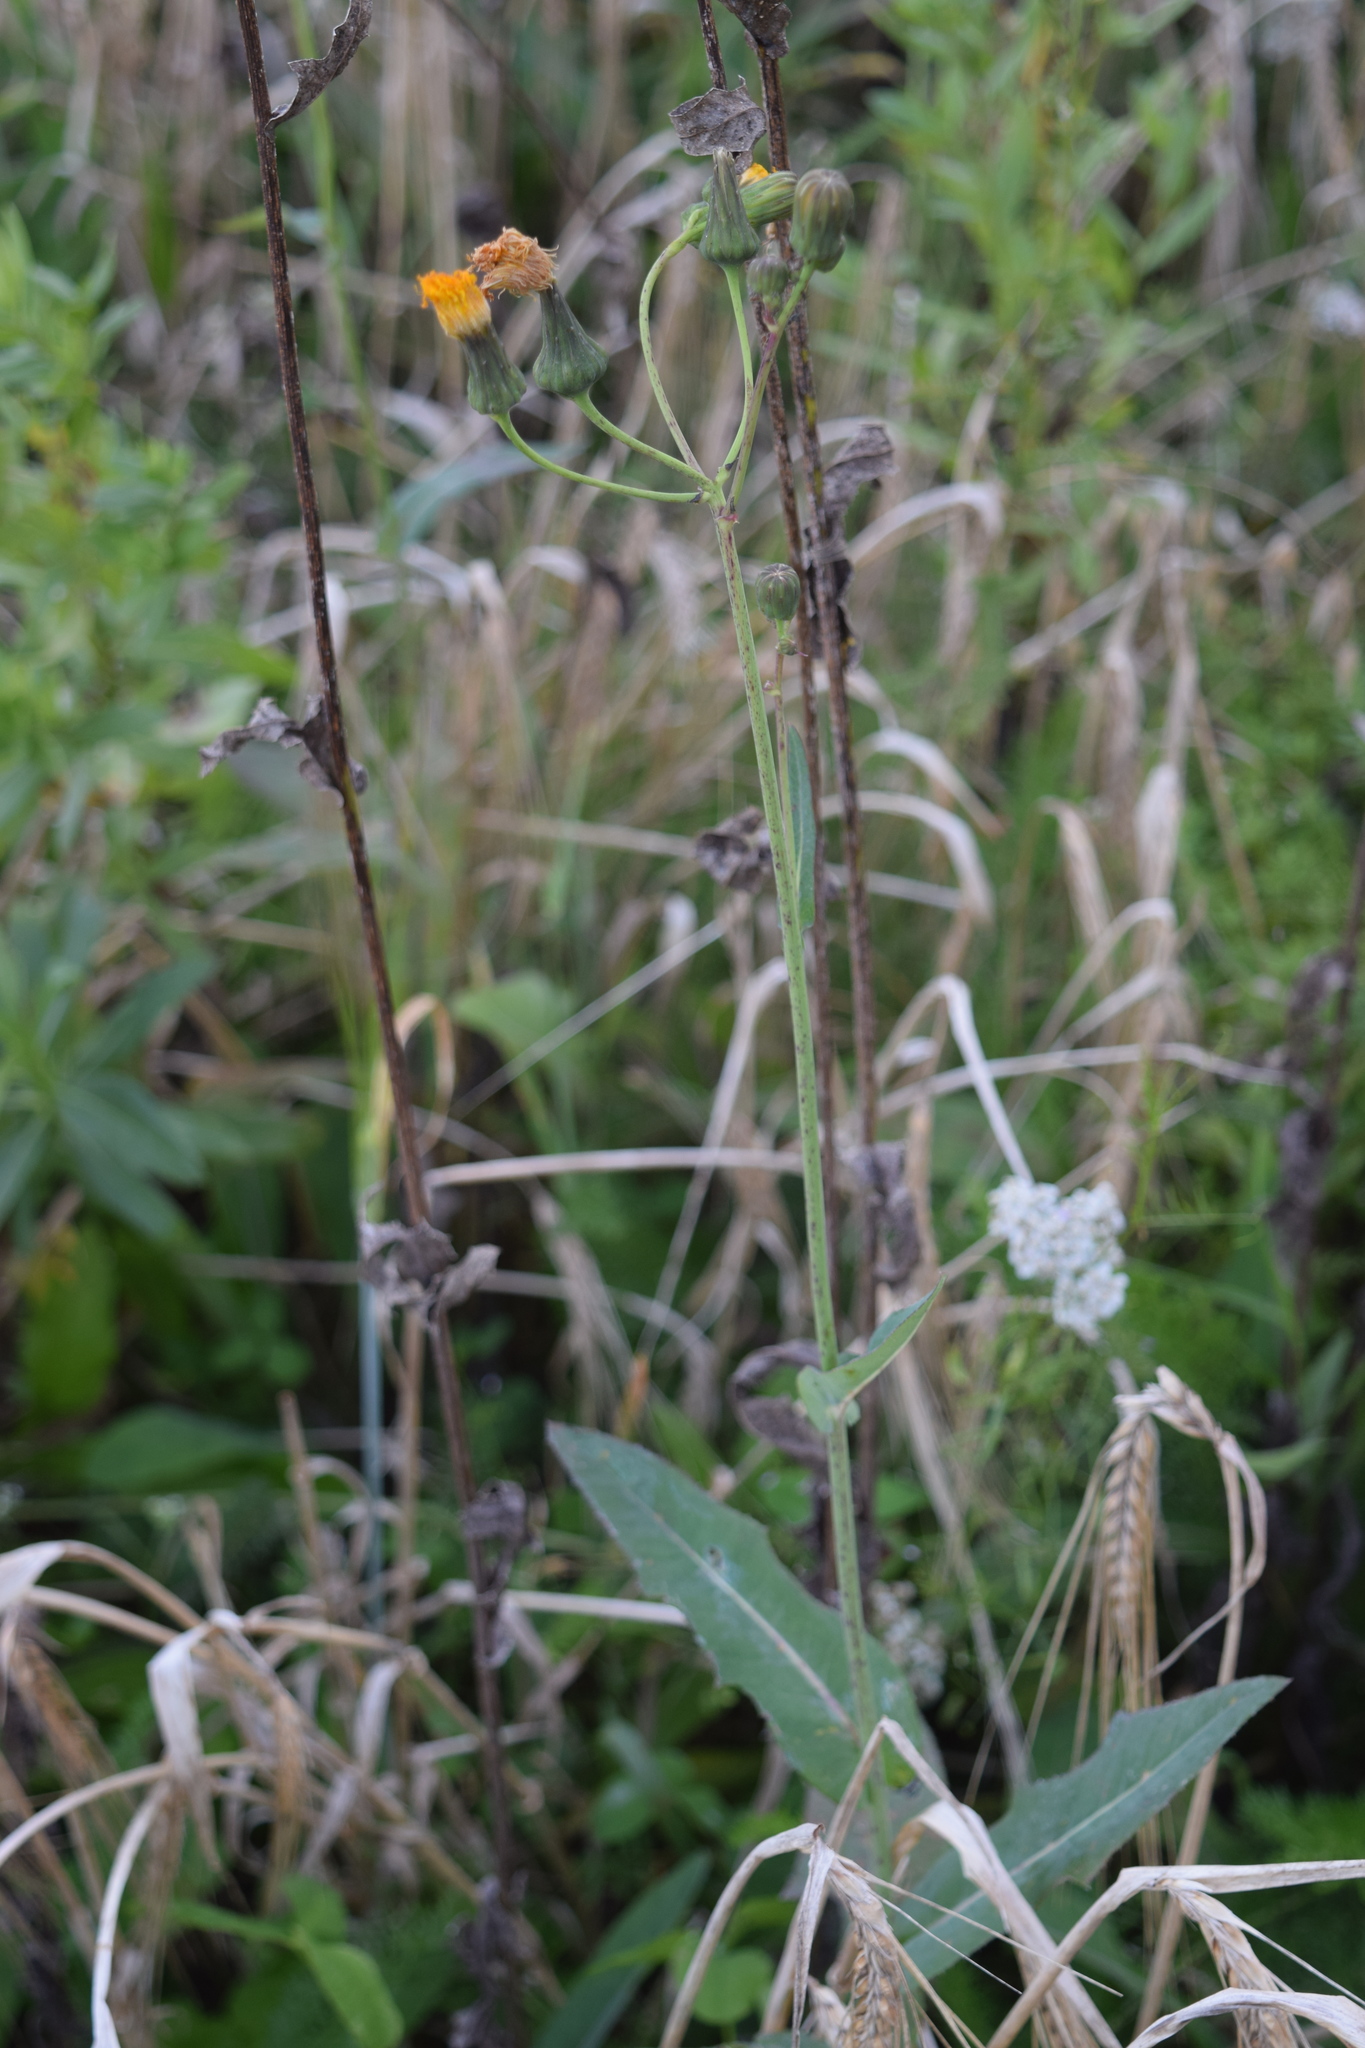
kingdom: Plantae
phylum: Tracheophyta
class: Magnoliopsida
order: Asterales
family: Asteraceae
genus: Sonchus
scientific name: Sonchus arvensis
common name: Perennial sow-thistle
